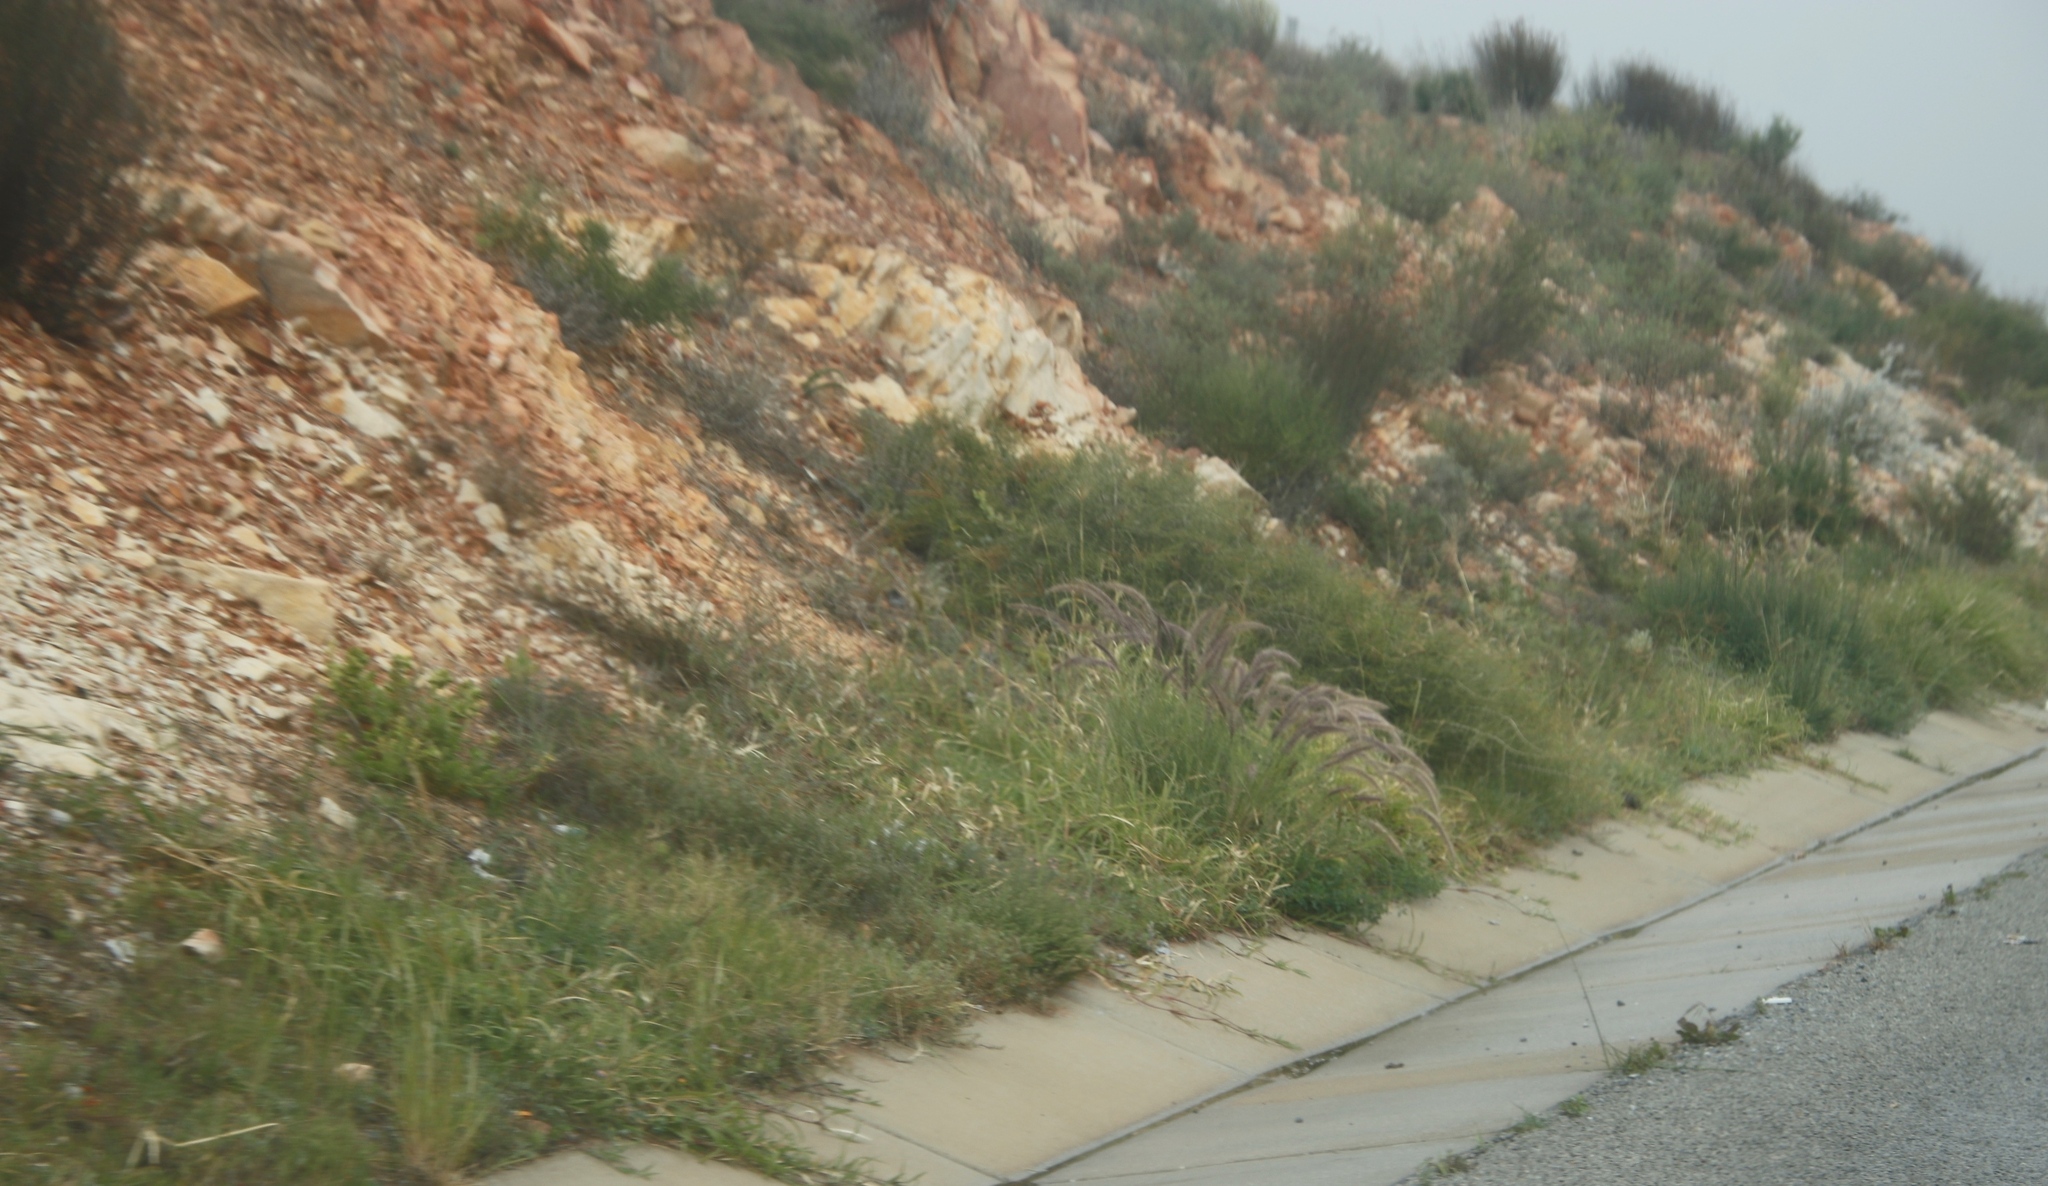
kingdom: Plantae
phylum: Tracheophyta
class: Liliopsida
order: Poales
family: Poaceae
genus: Cenchrus
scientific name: Cenchrus setaceus
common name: Crimson fountaingrass
